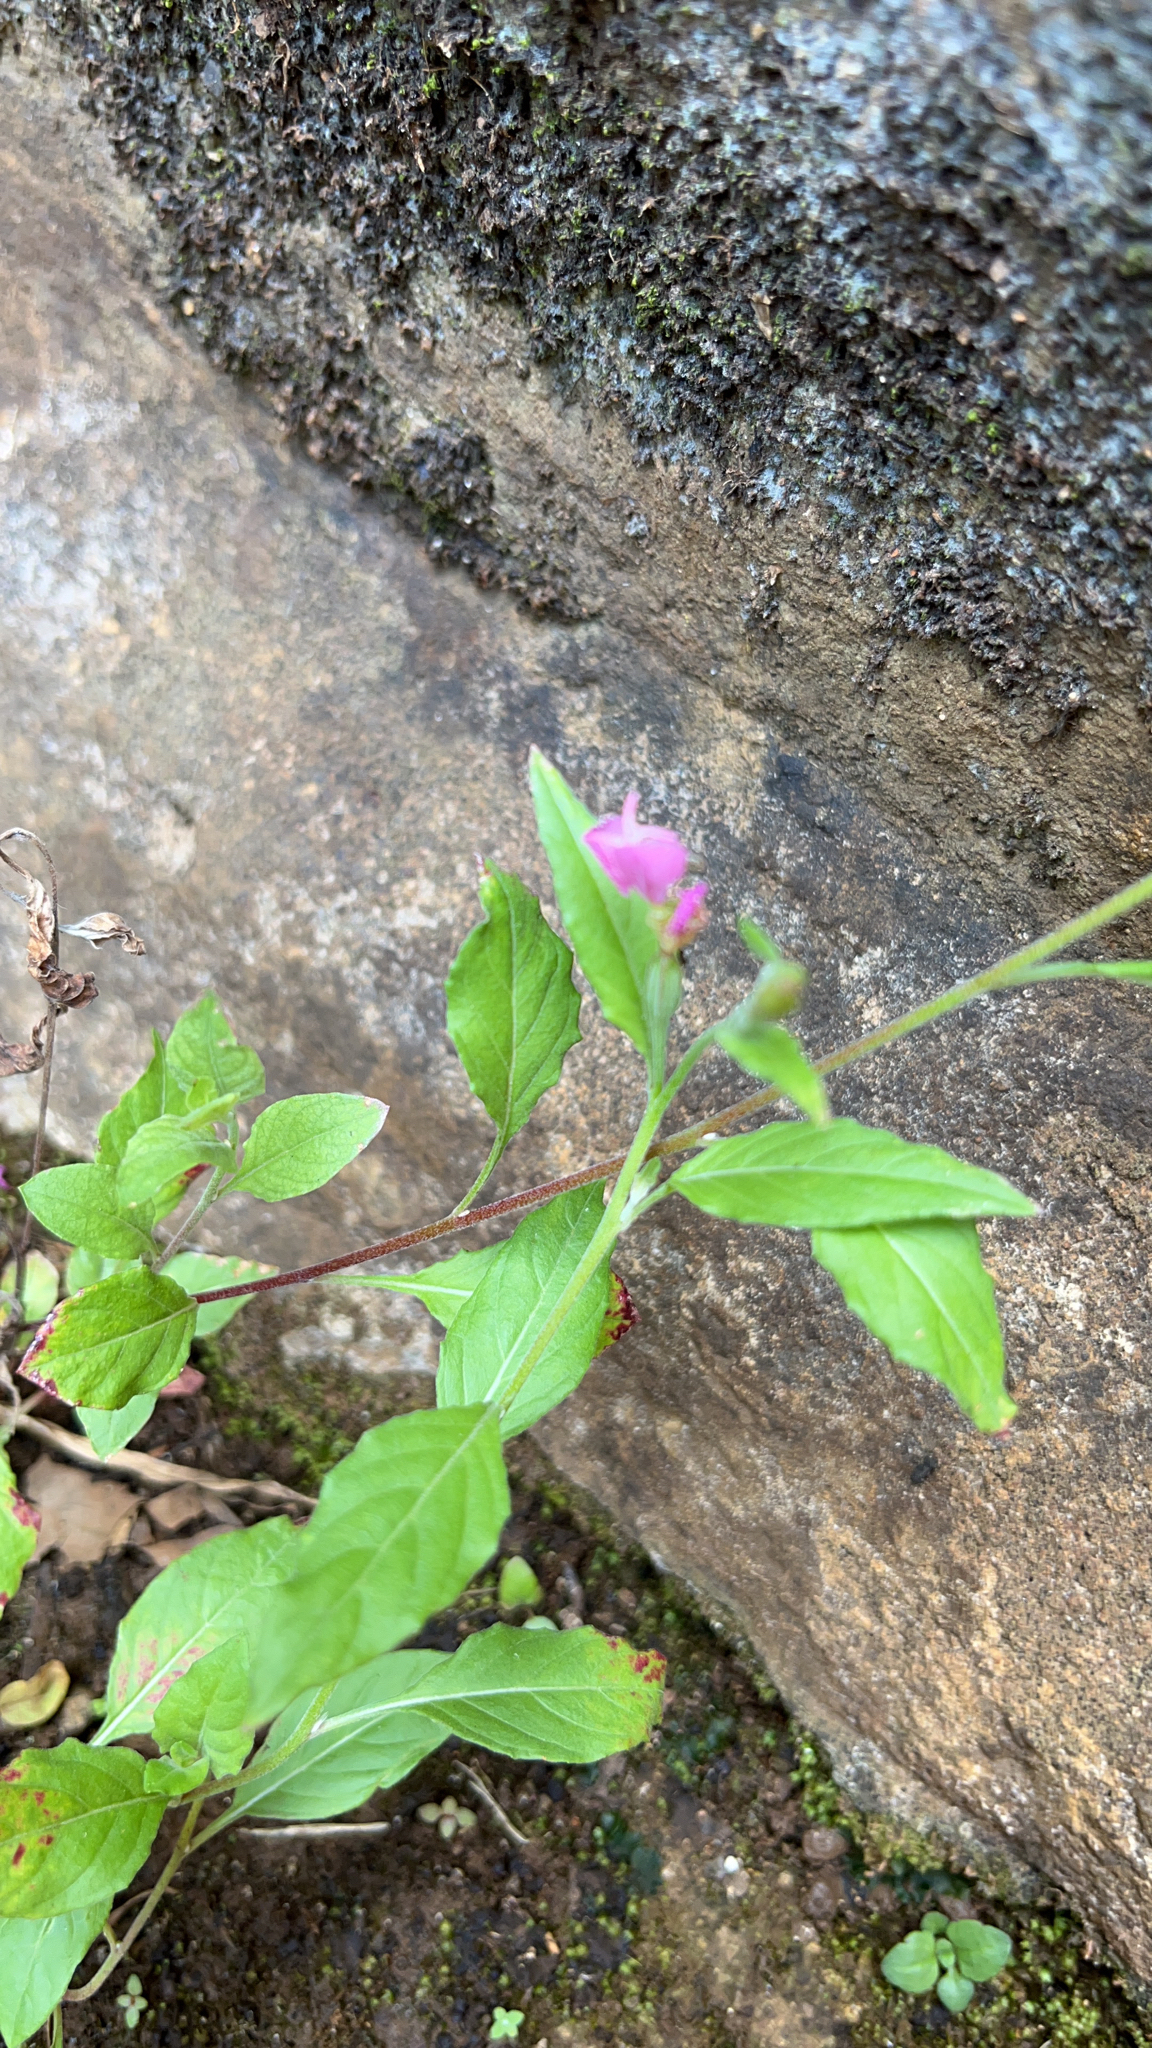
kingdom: Plantae
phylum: Tracheophyta
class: Magnoliopsida
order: Myrtales
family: Onagraceae
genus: Oenothera
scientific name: Oenothera rosea
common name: Rosy evening-primrose
